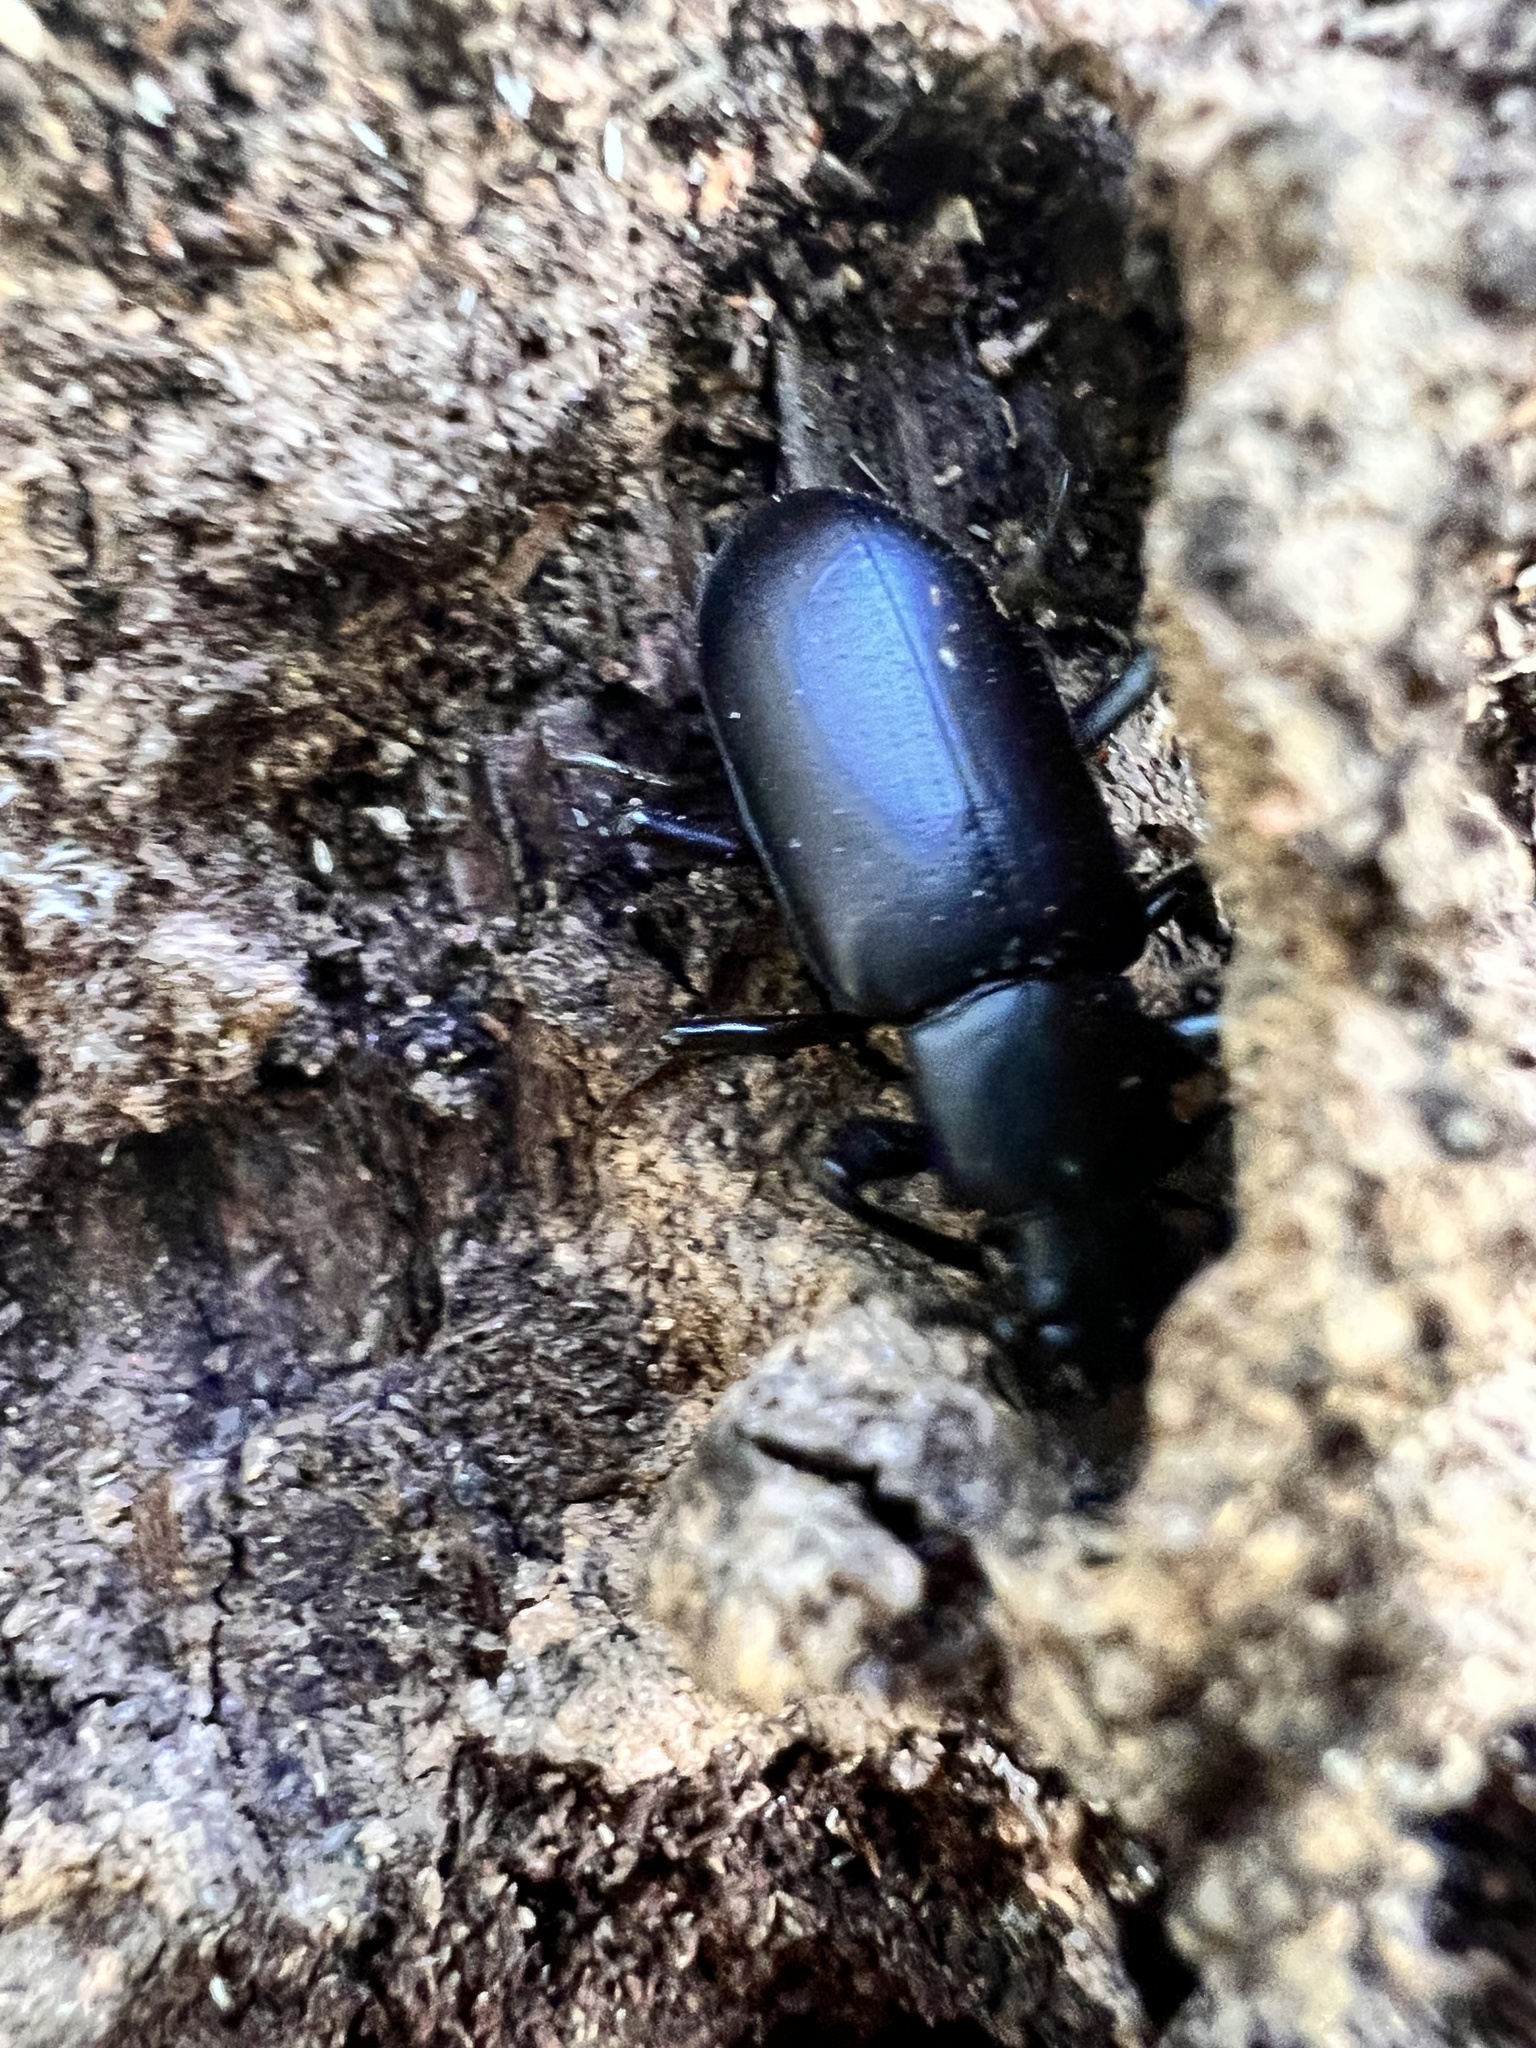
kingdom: Animalia
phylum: Arthropoda
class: Insecta
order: Coleoptera
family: Tenebrionidae
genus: Alobates
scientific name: Alobates pensylvanicus
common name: False mealworm beetle
